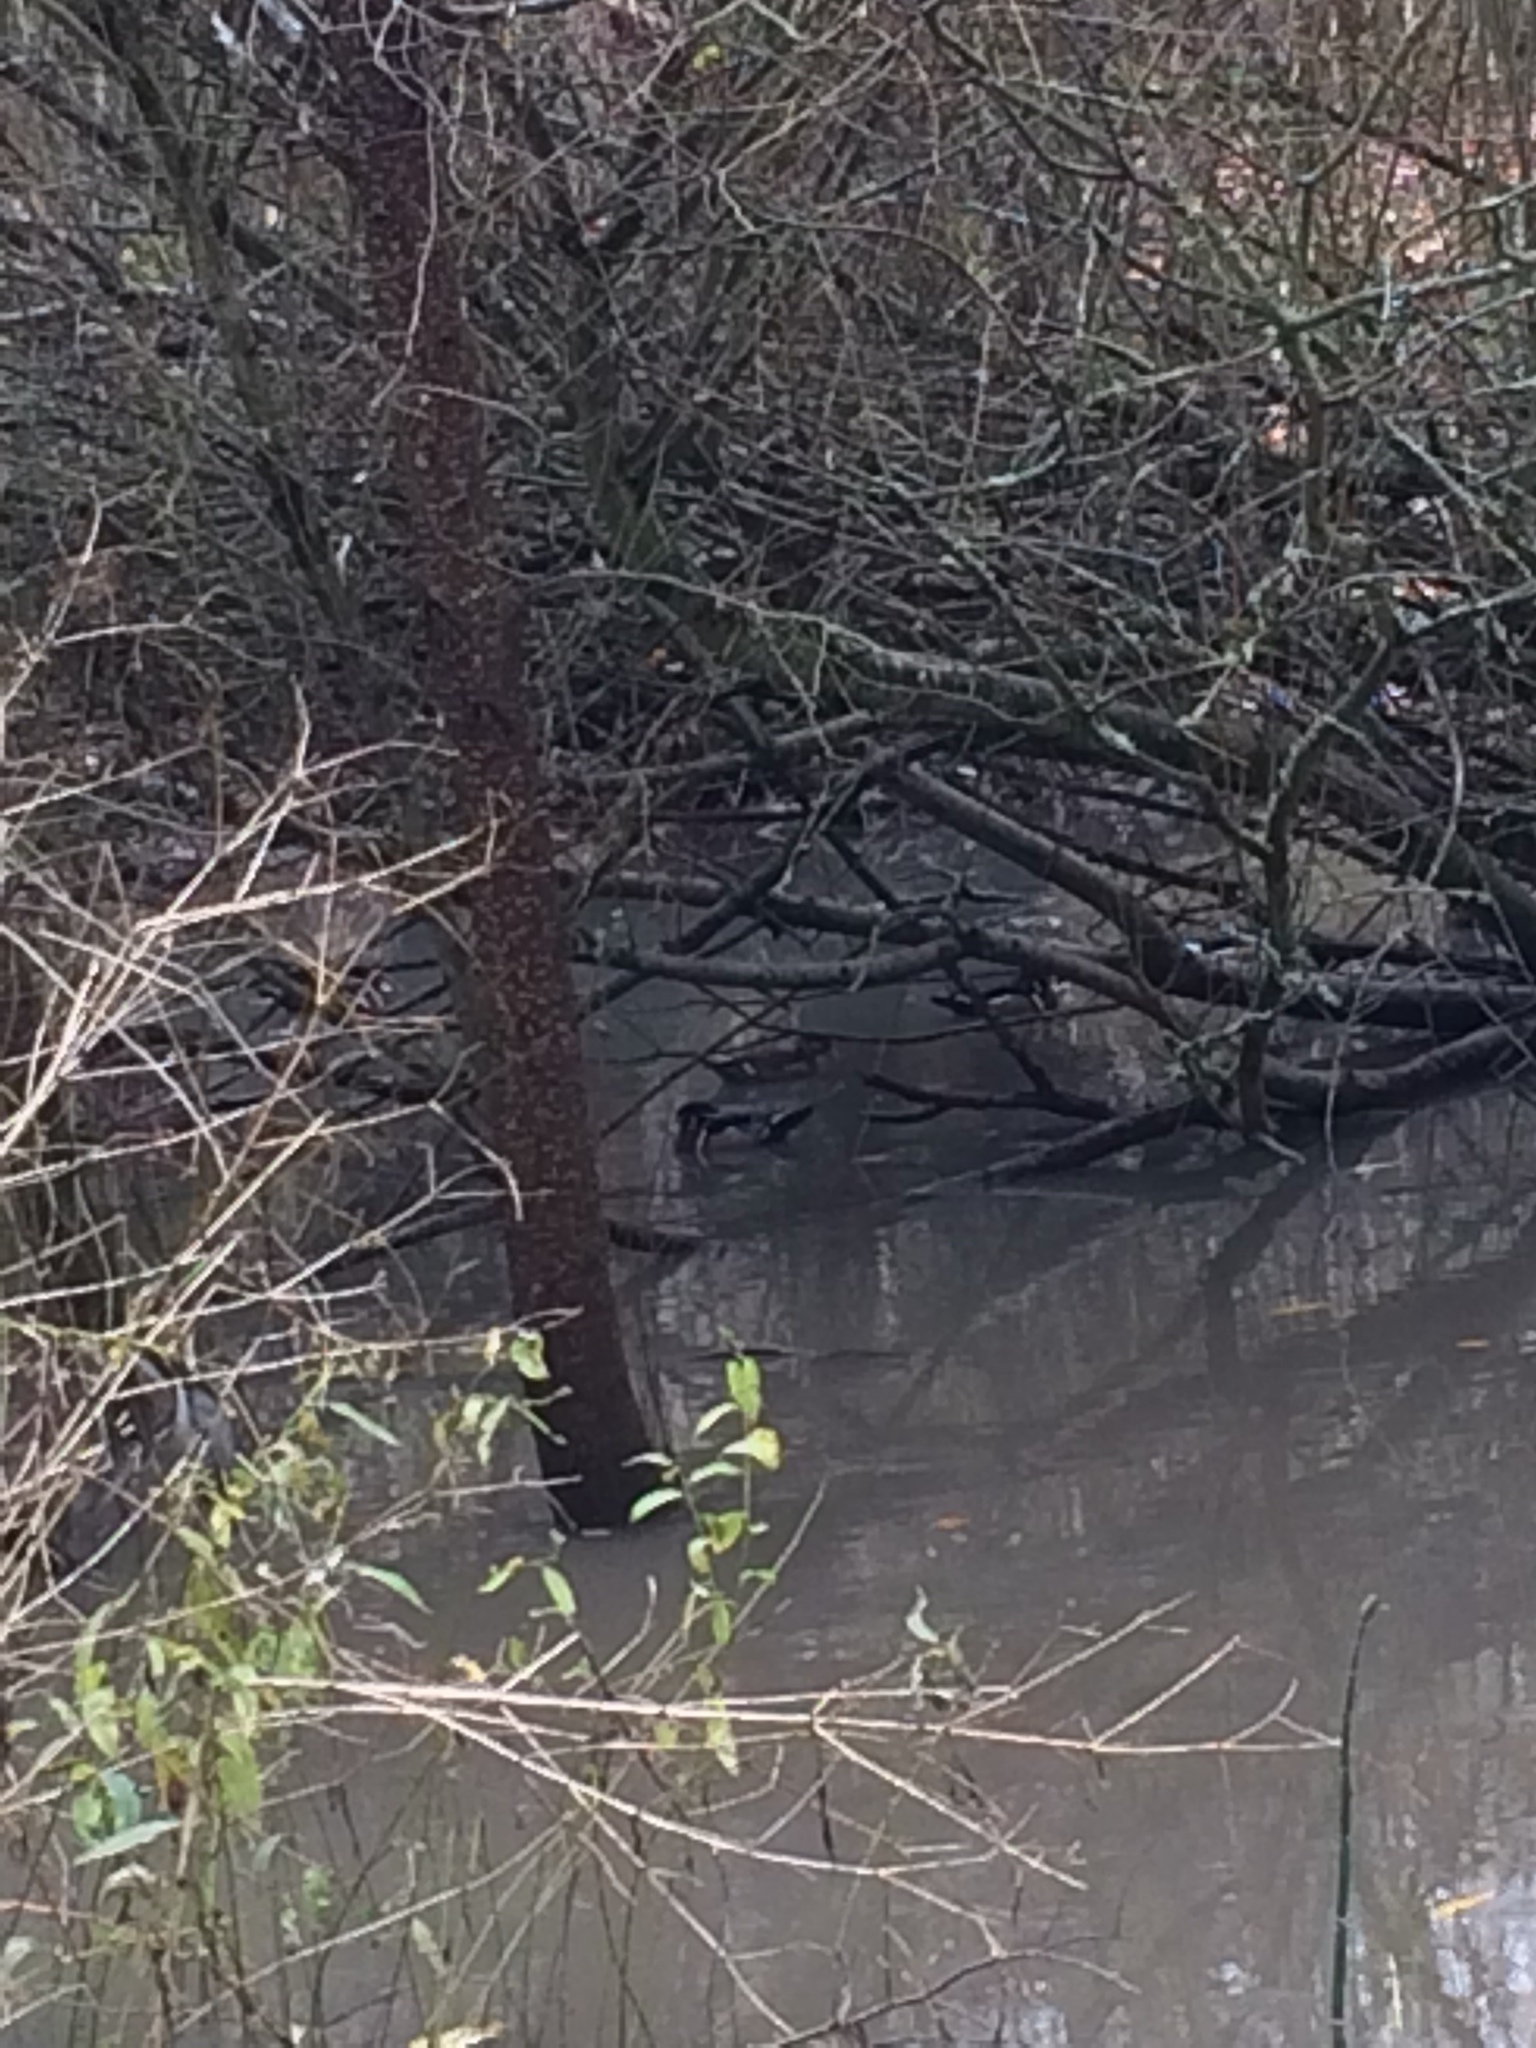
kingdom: Animalia
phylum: Chordata
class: Aves
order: Anseriformes
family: Anatidae
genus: Aix
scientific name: Aix sponsa
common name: Wood duck
